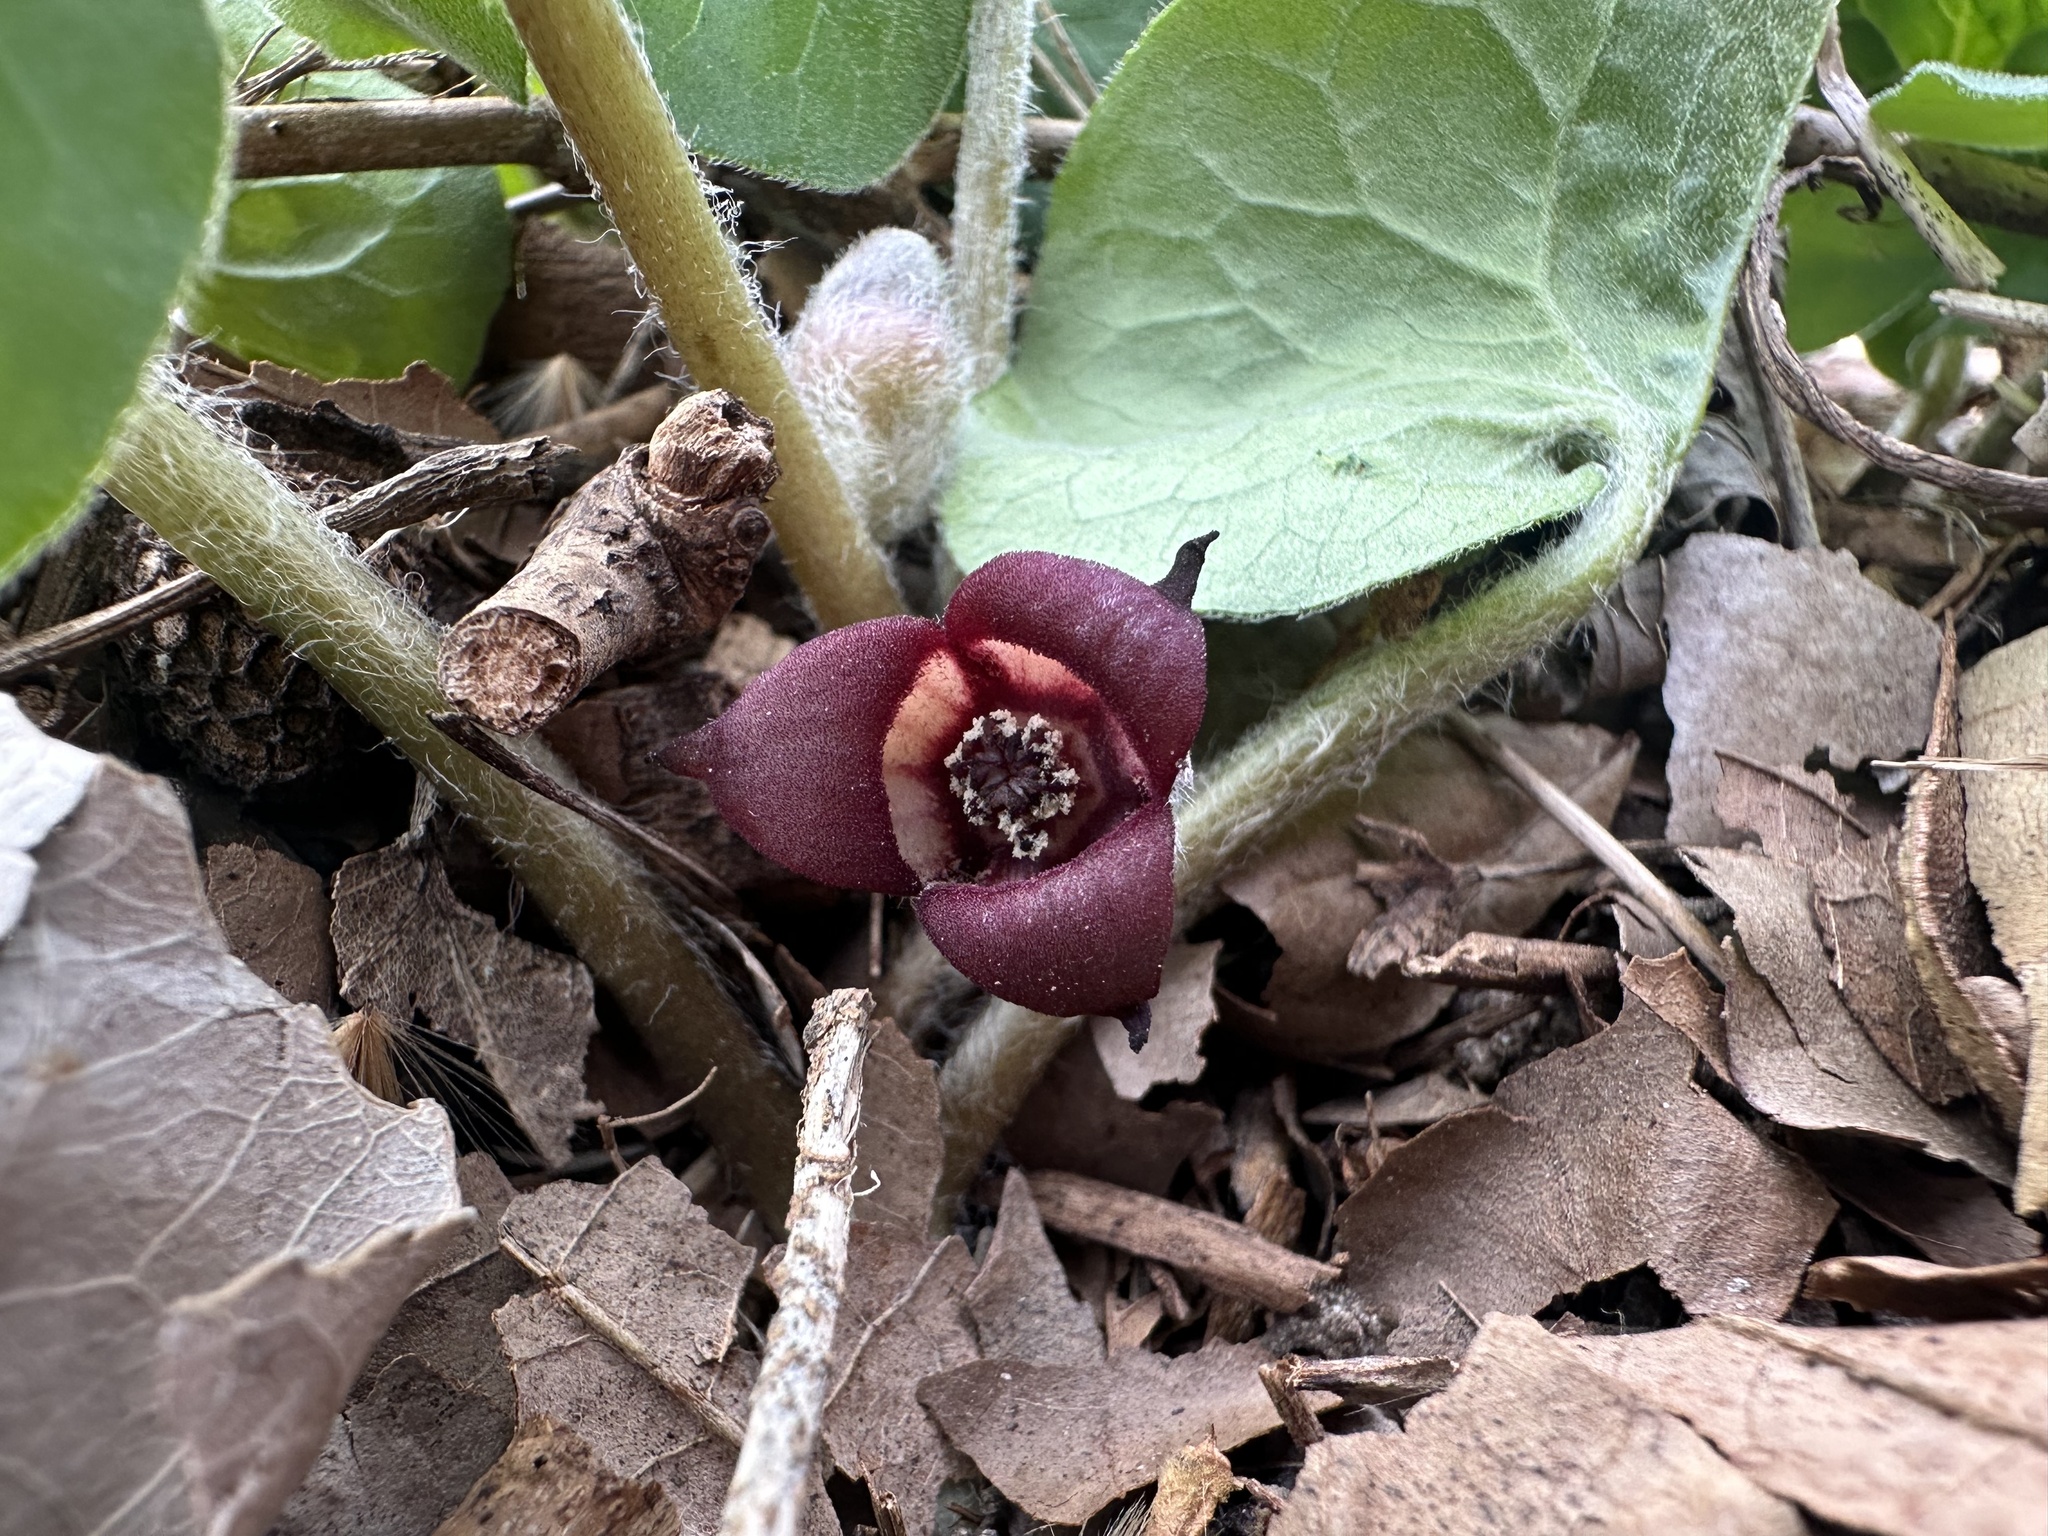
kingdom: Plantae
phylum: Tracheophyta
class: Magnoliopsida
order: Piperales
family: Aristolochiaceae
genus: Asarum
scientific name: Asarum canadense
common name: Wild ginger
